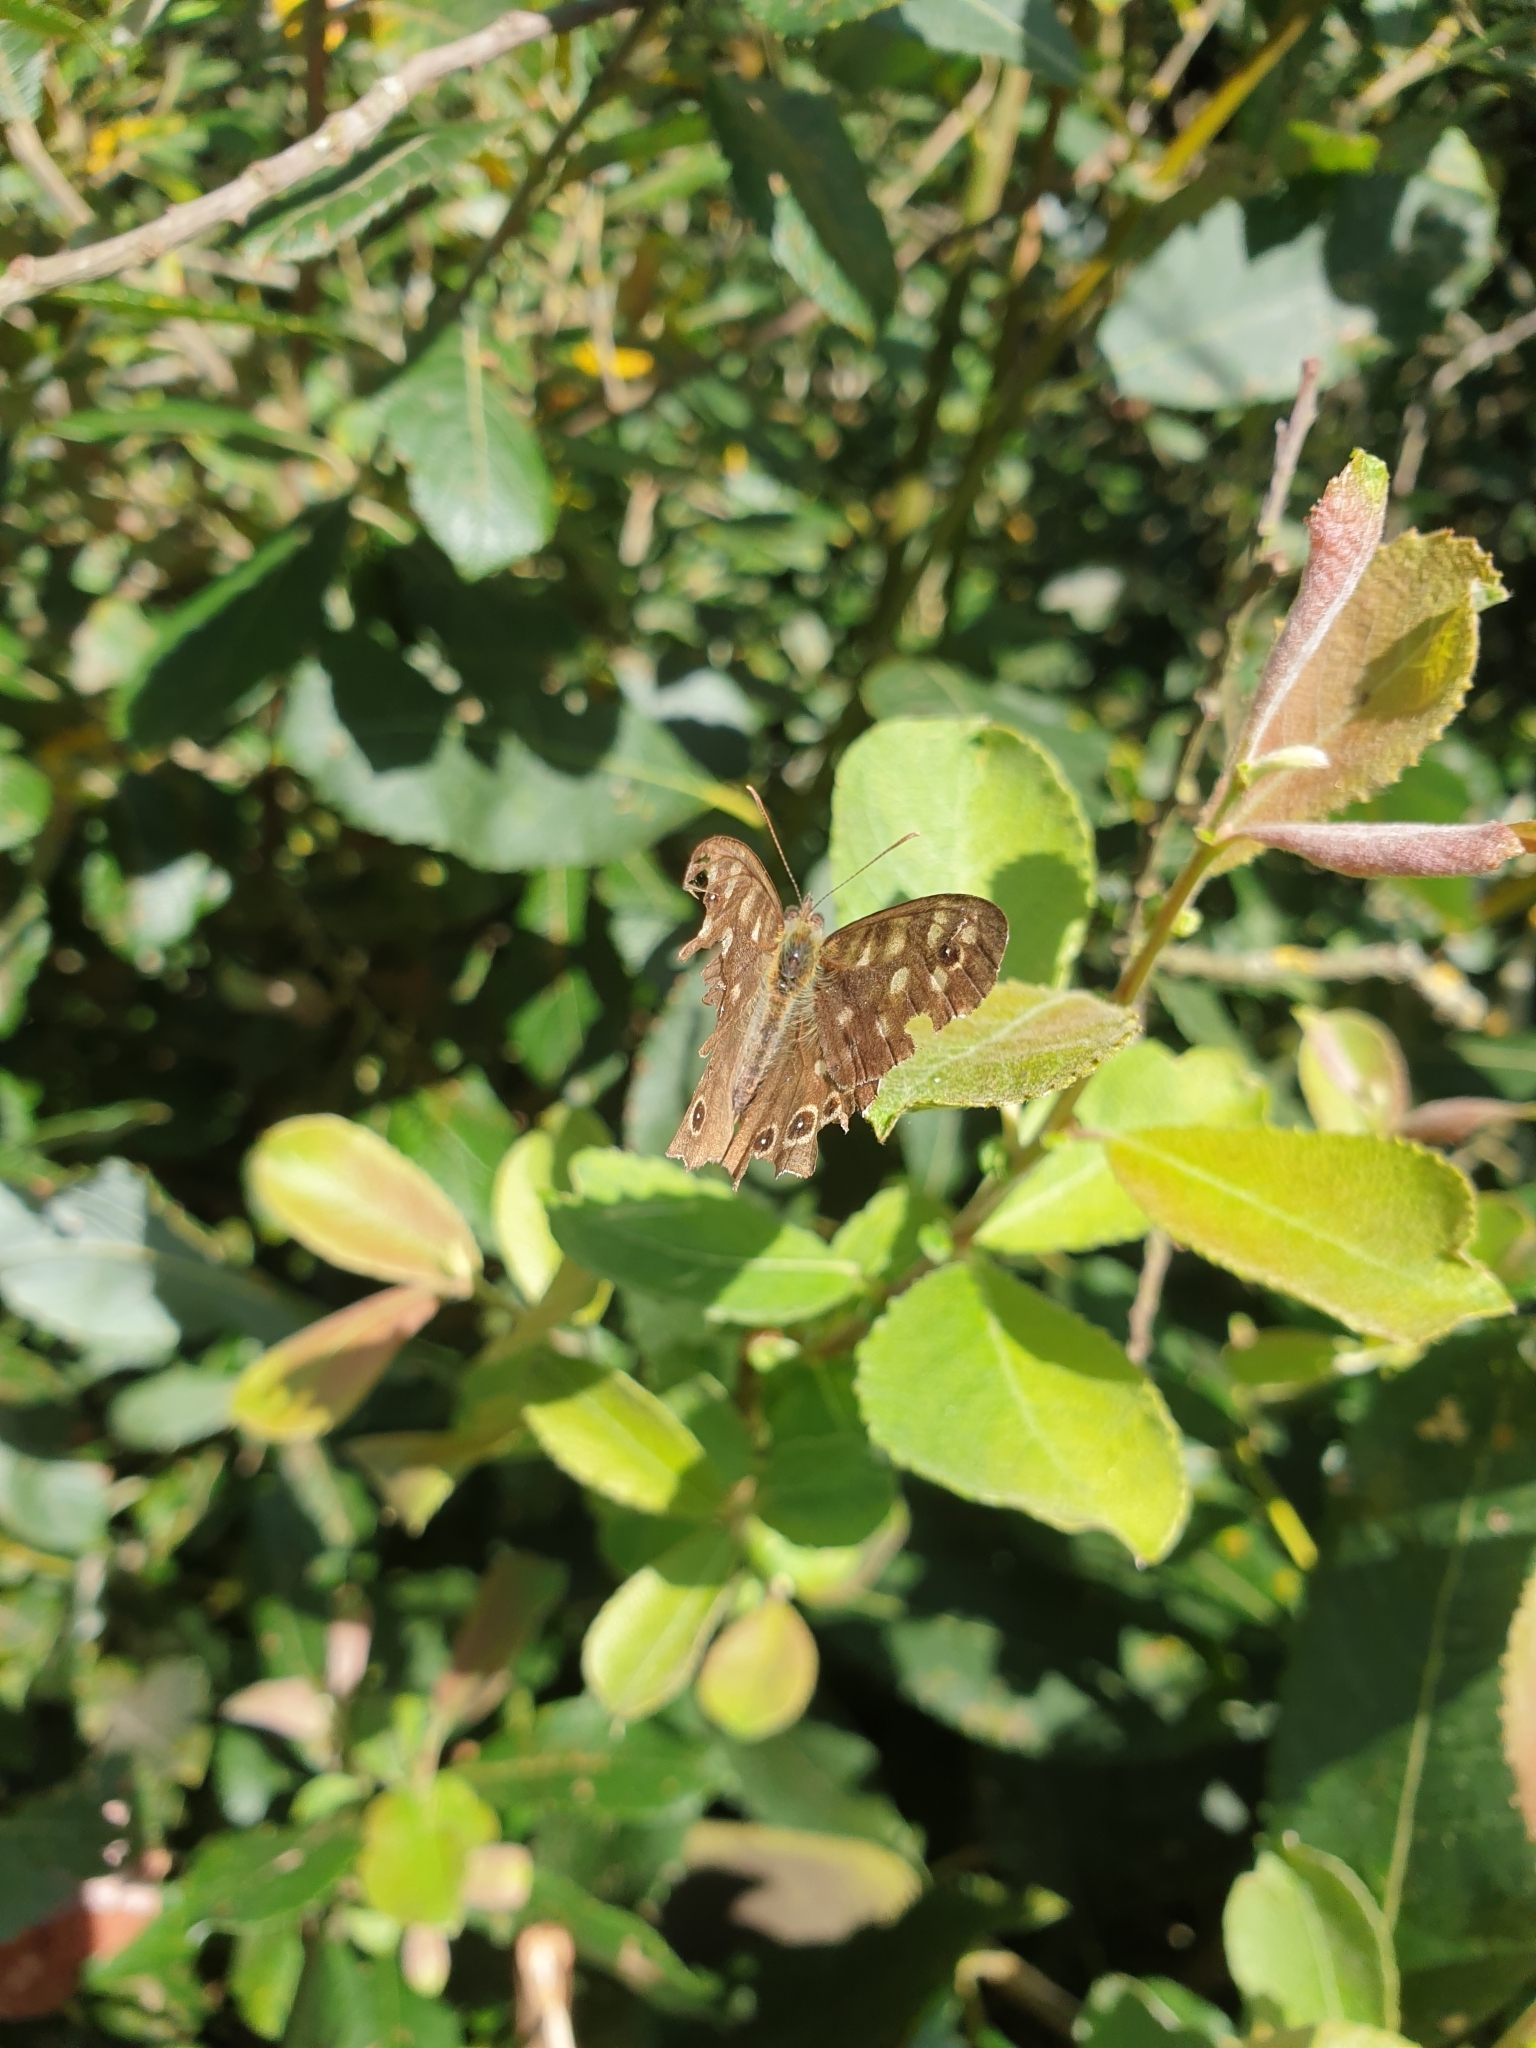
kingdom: Animalia
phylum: Arthropoda
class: Insecta
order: Lepidoptera
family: Nymphalidae
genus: Pararge
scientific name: Pararge aegeria
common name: Speckled wood
